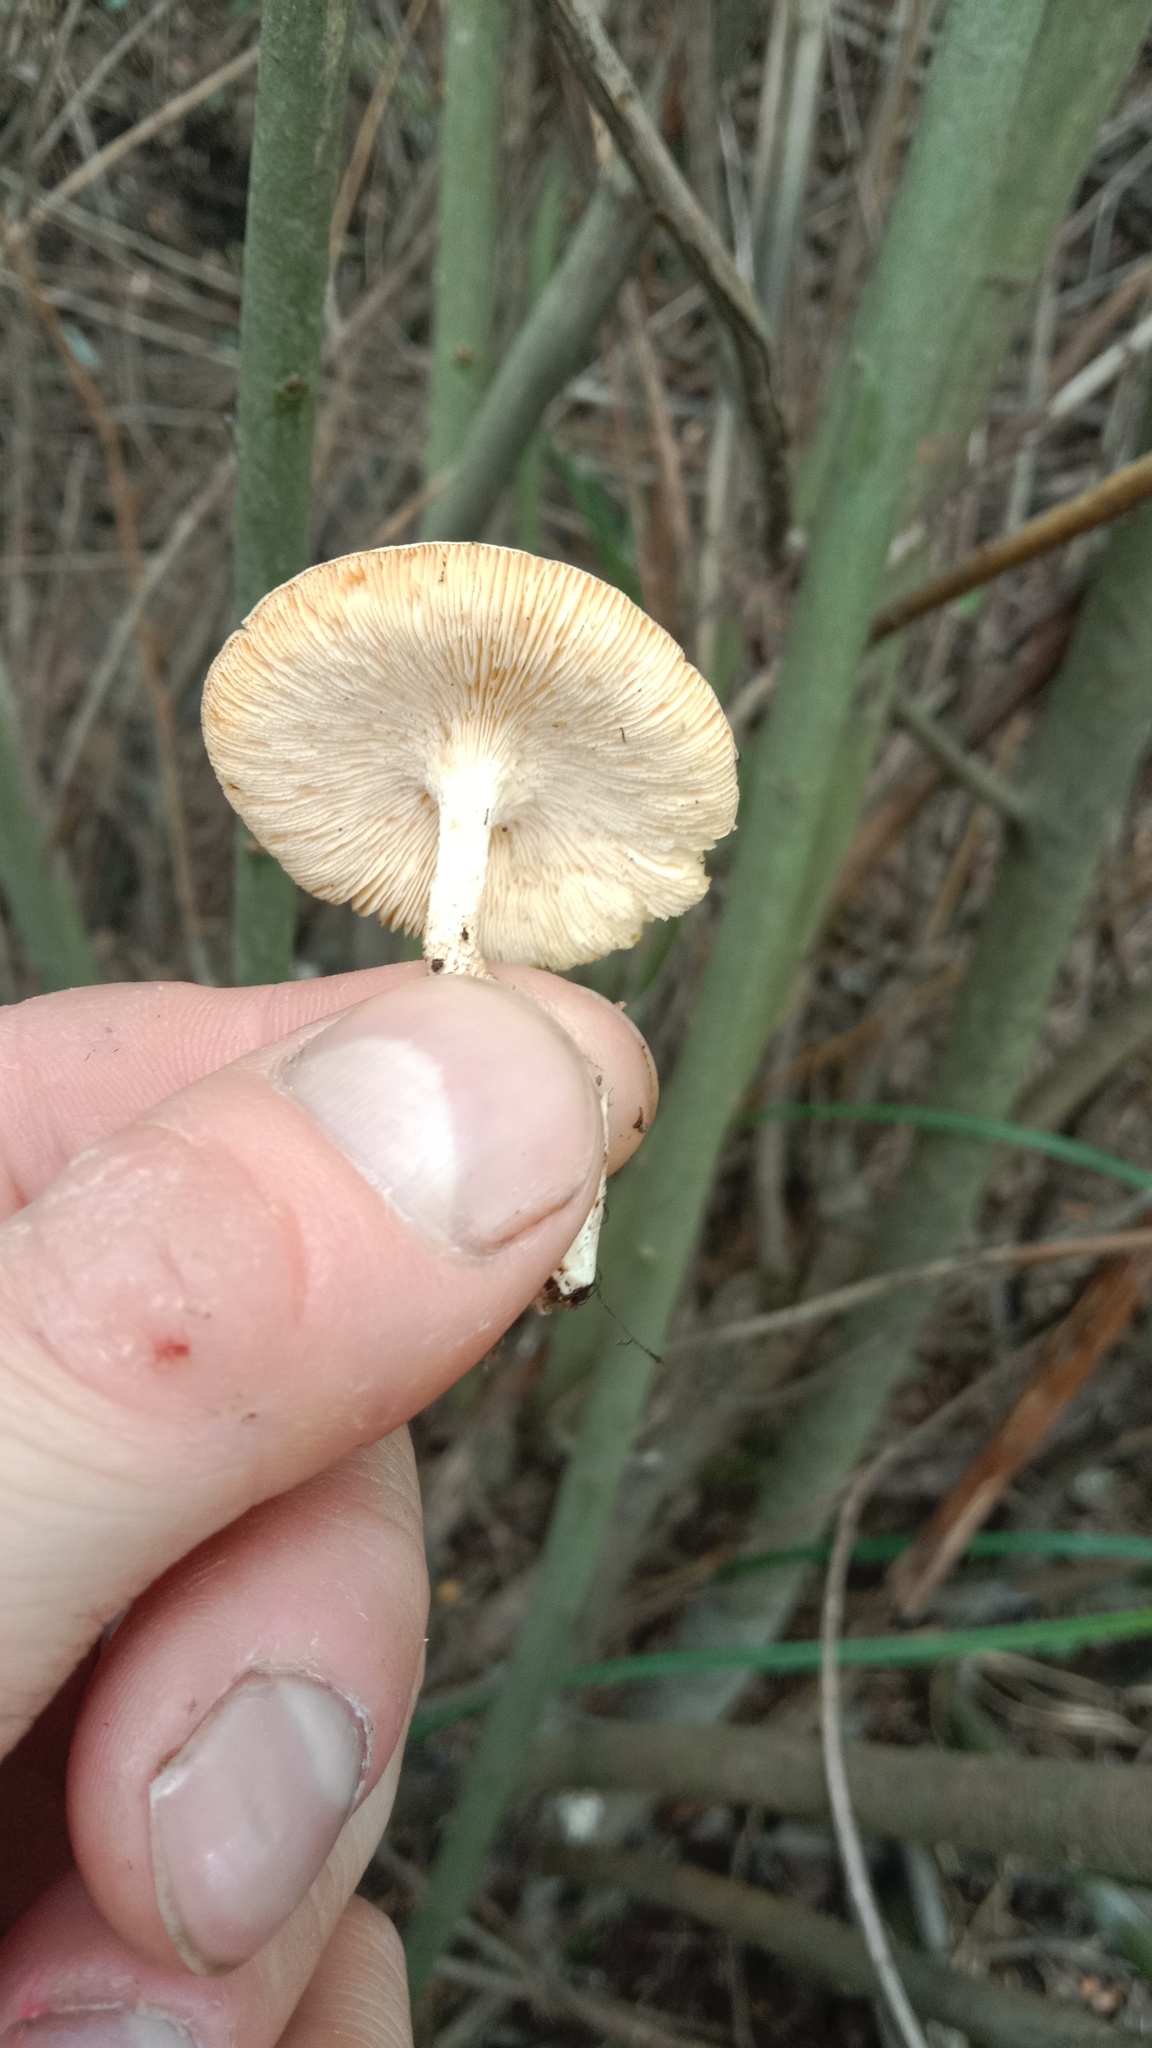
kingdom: Fungi
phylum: Basidiomycota
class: Agaricomycetes
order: Polyporales
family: Polyporaceae
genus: Lentinus
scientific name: Lentinus tigrinus
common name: Tiger sawgill
